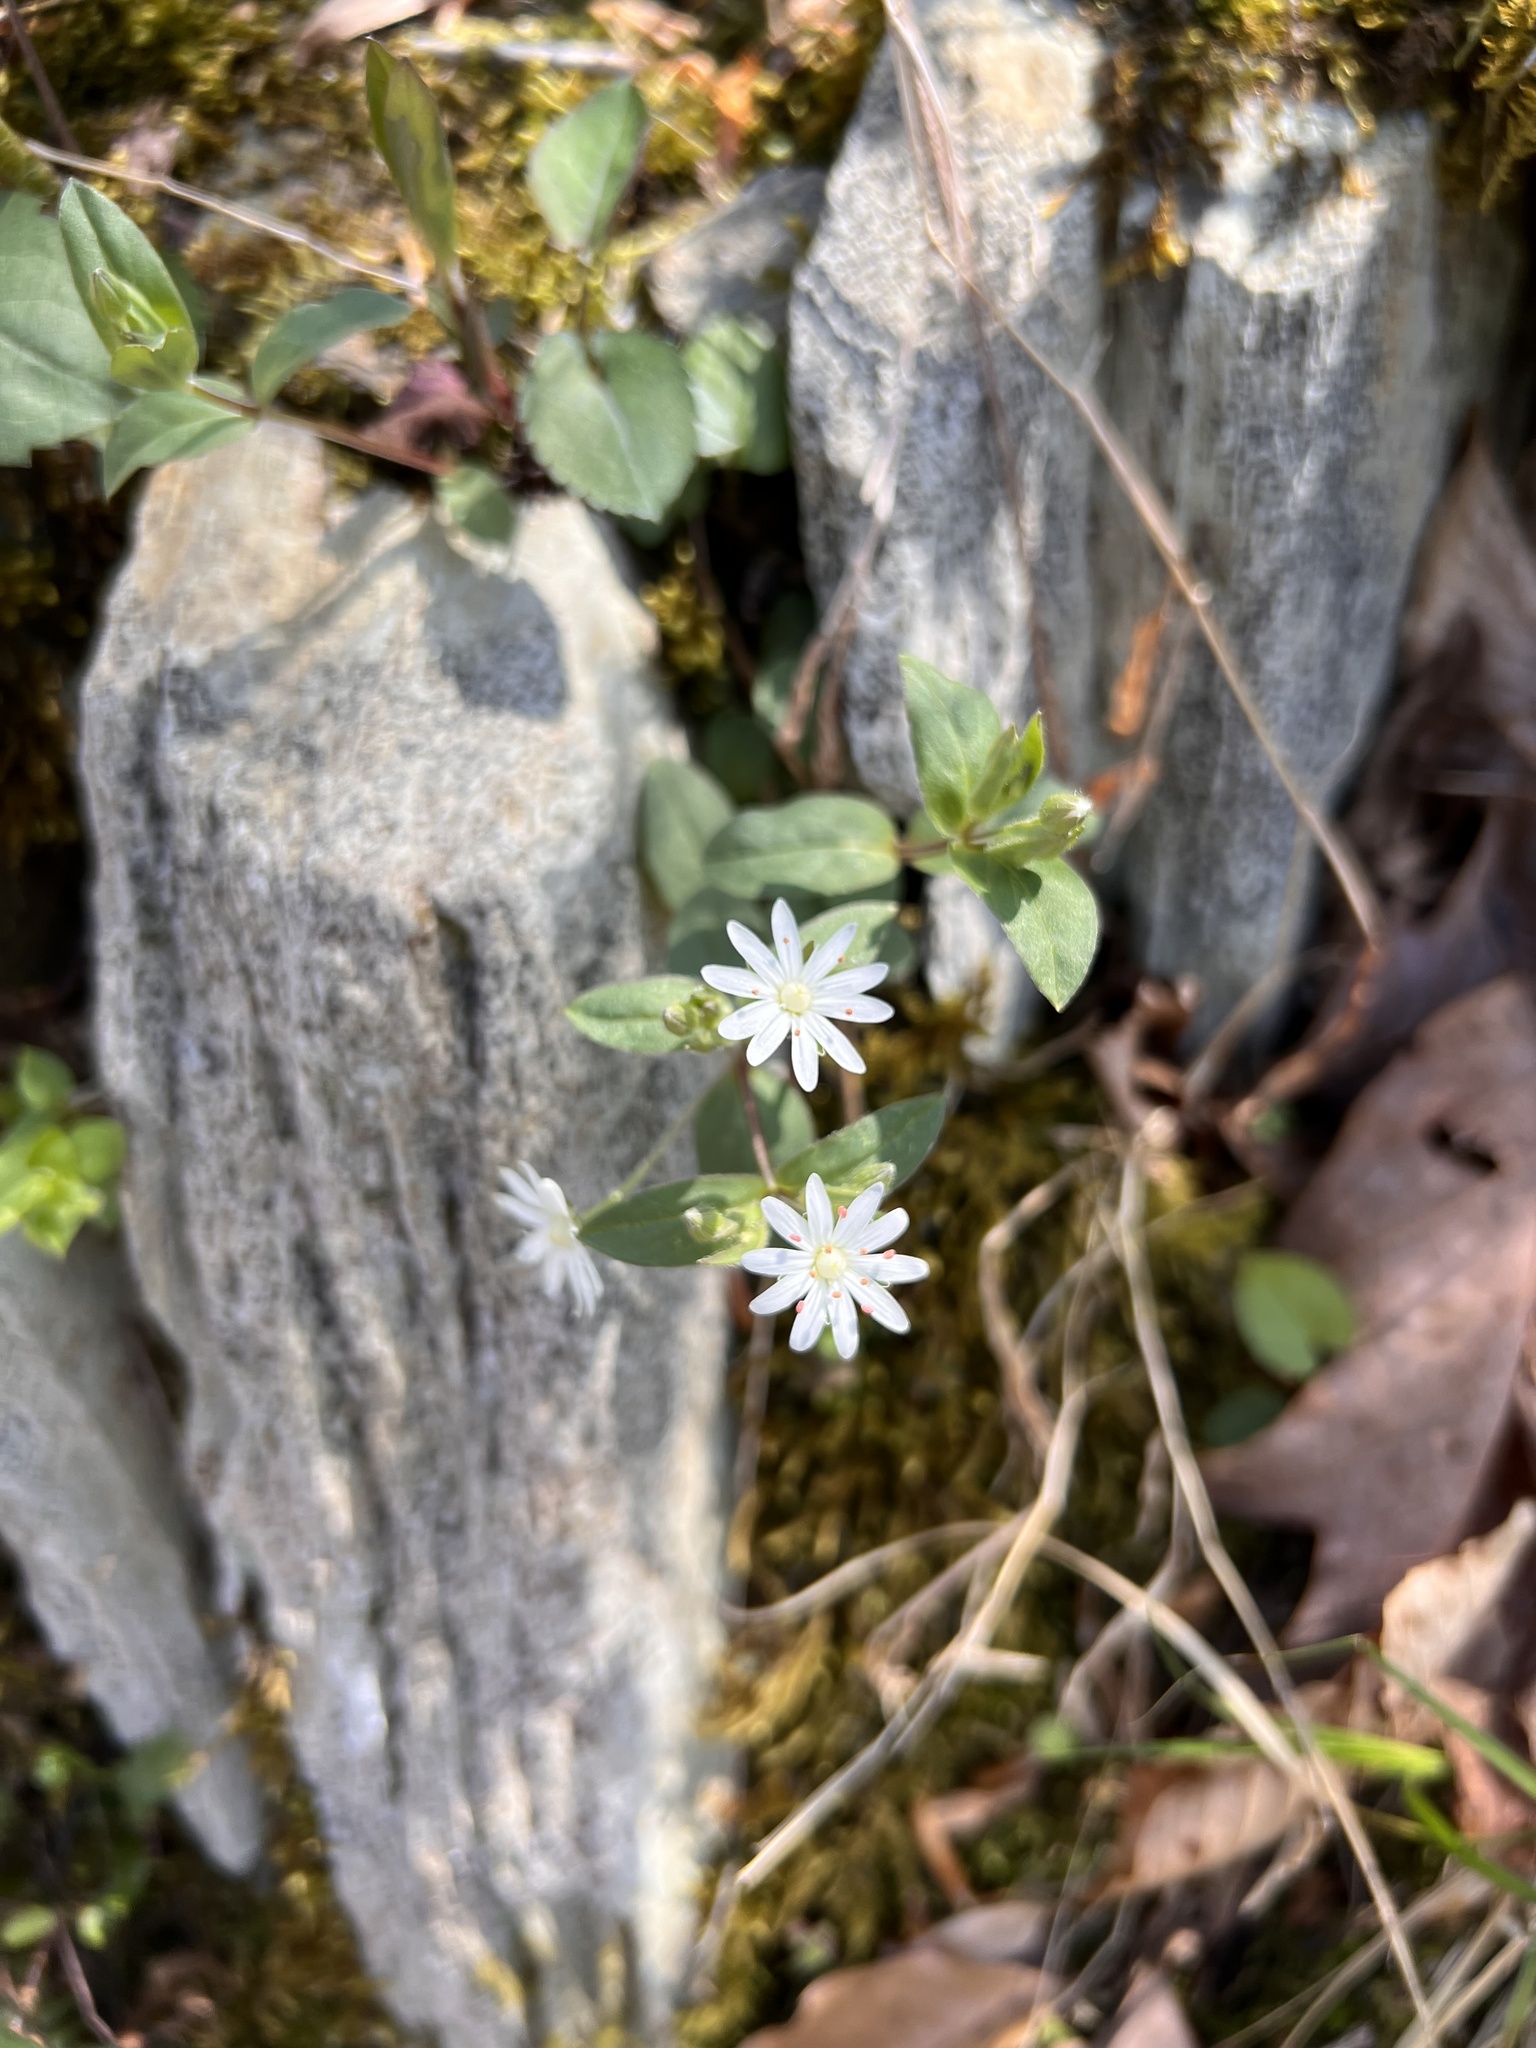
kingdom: Plantae
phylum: Tracheophyta
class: Magnoliopsida
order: Caryophyllales
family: Caryophyllaceae
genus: Stellaria
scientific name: Stellaria pubera
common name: Star chickweed
